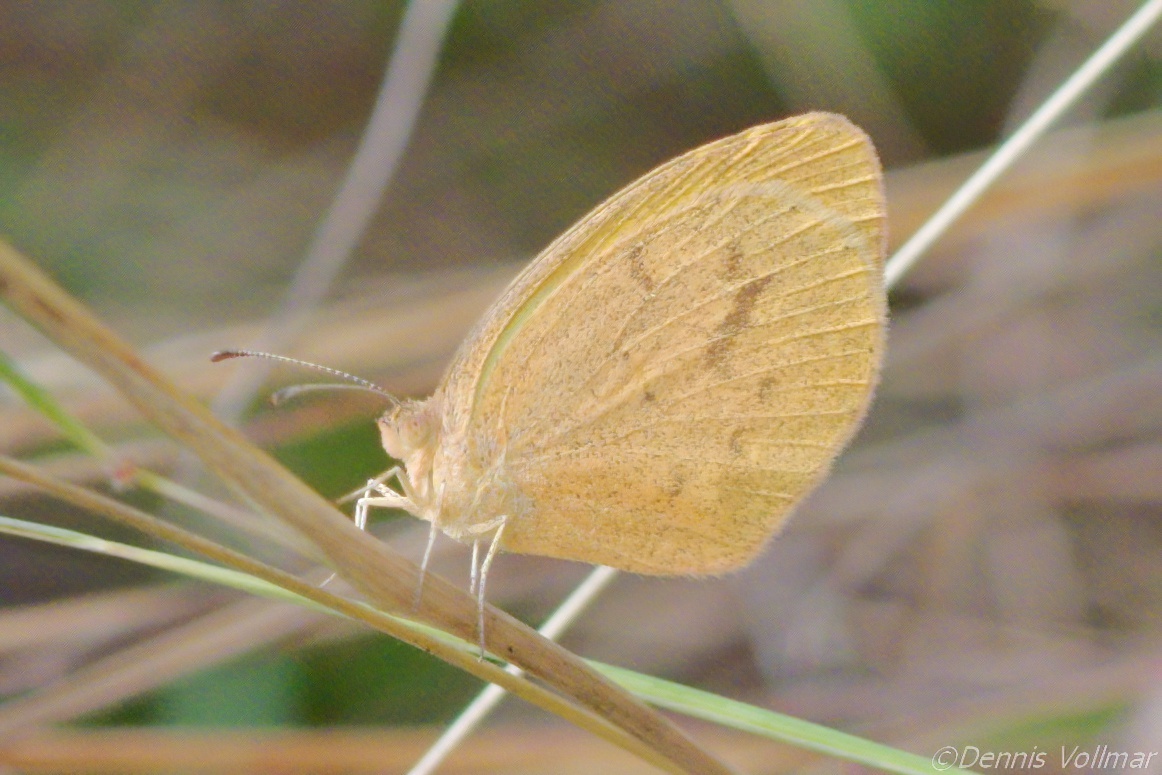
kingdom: Animalia
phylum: Arthropoda
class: Insecta
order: Lepidoptera
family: Pieridae
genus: Eurema
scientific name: Eurema daira
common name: Barred sulphur
